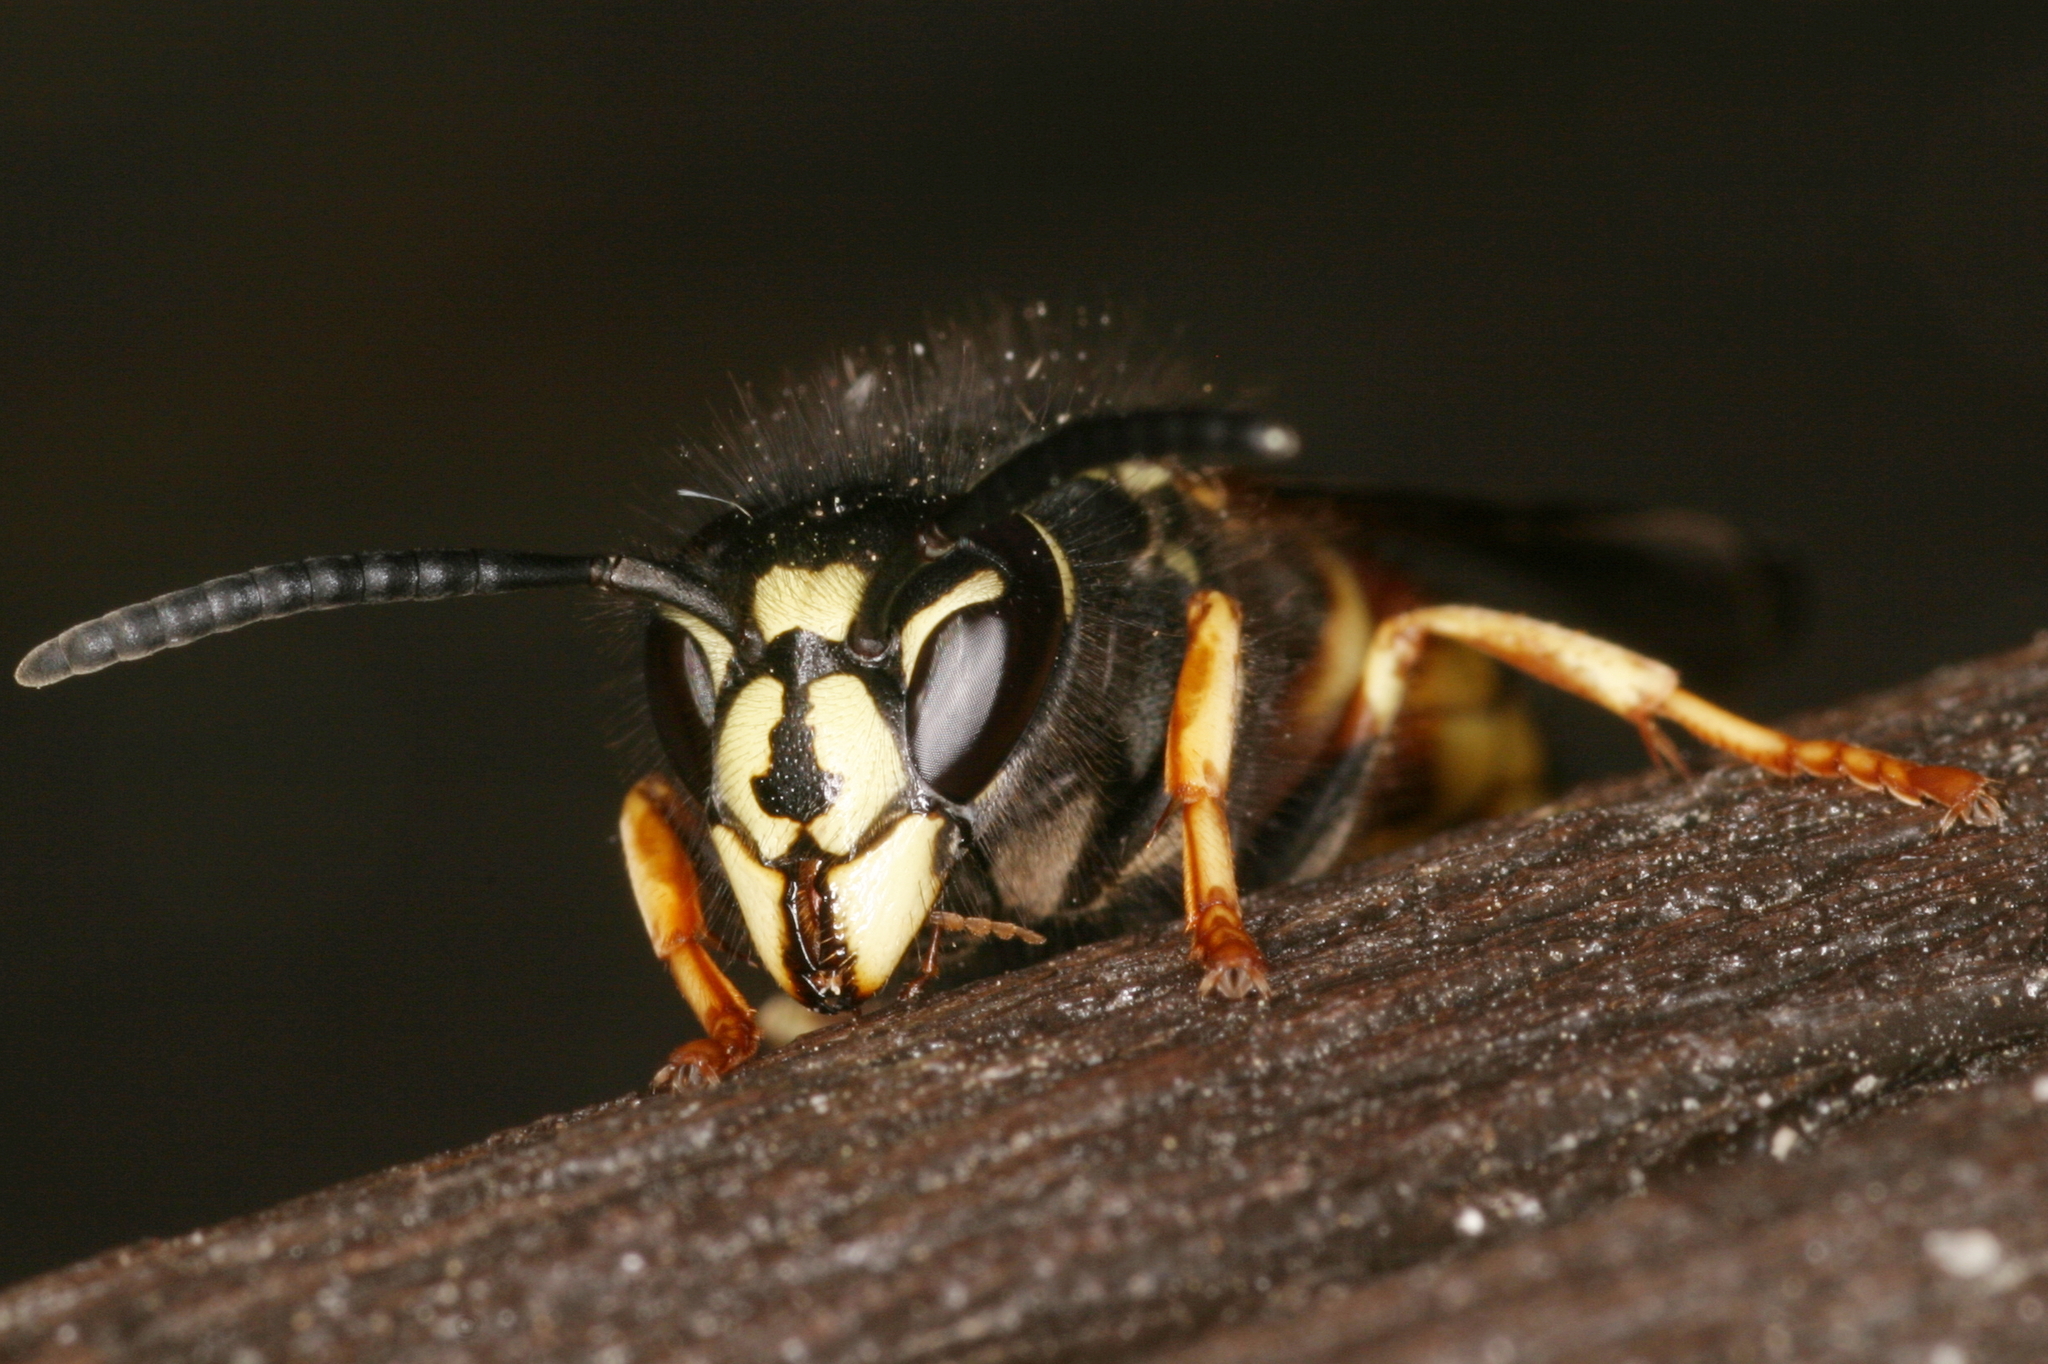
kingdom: Animalia
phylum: Arthropoda
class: Insecta
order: Hymenoptera
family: Vespidae
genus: Vespula
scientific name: Vespula rufa
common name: Red wasp
